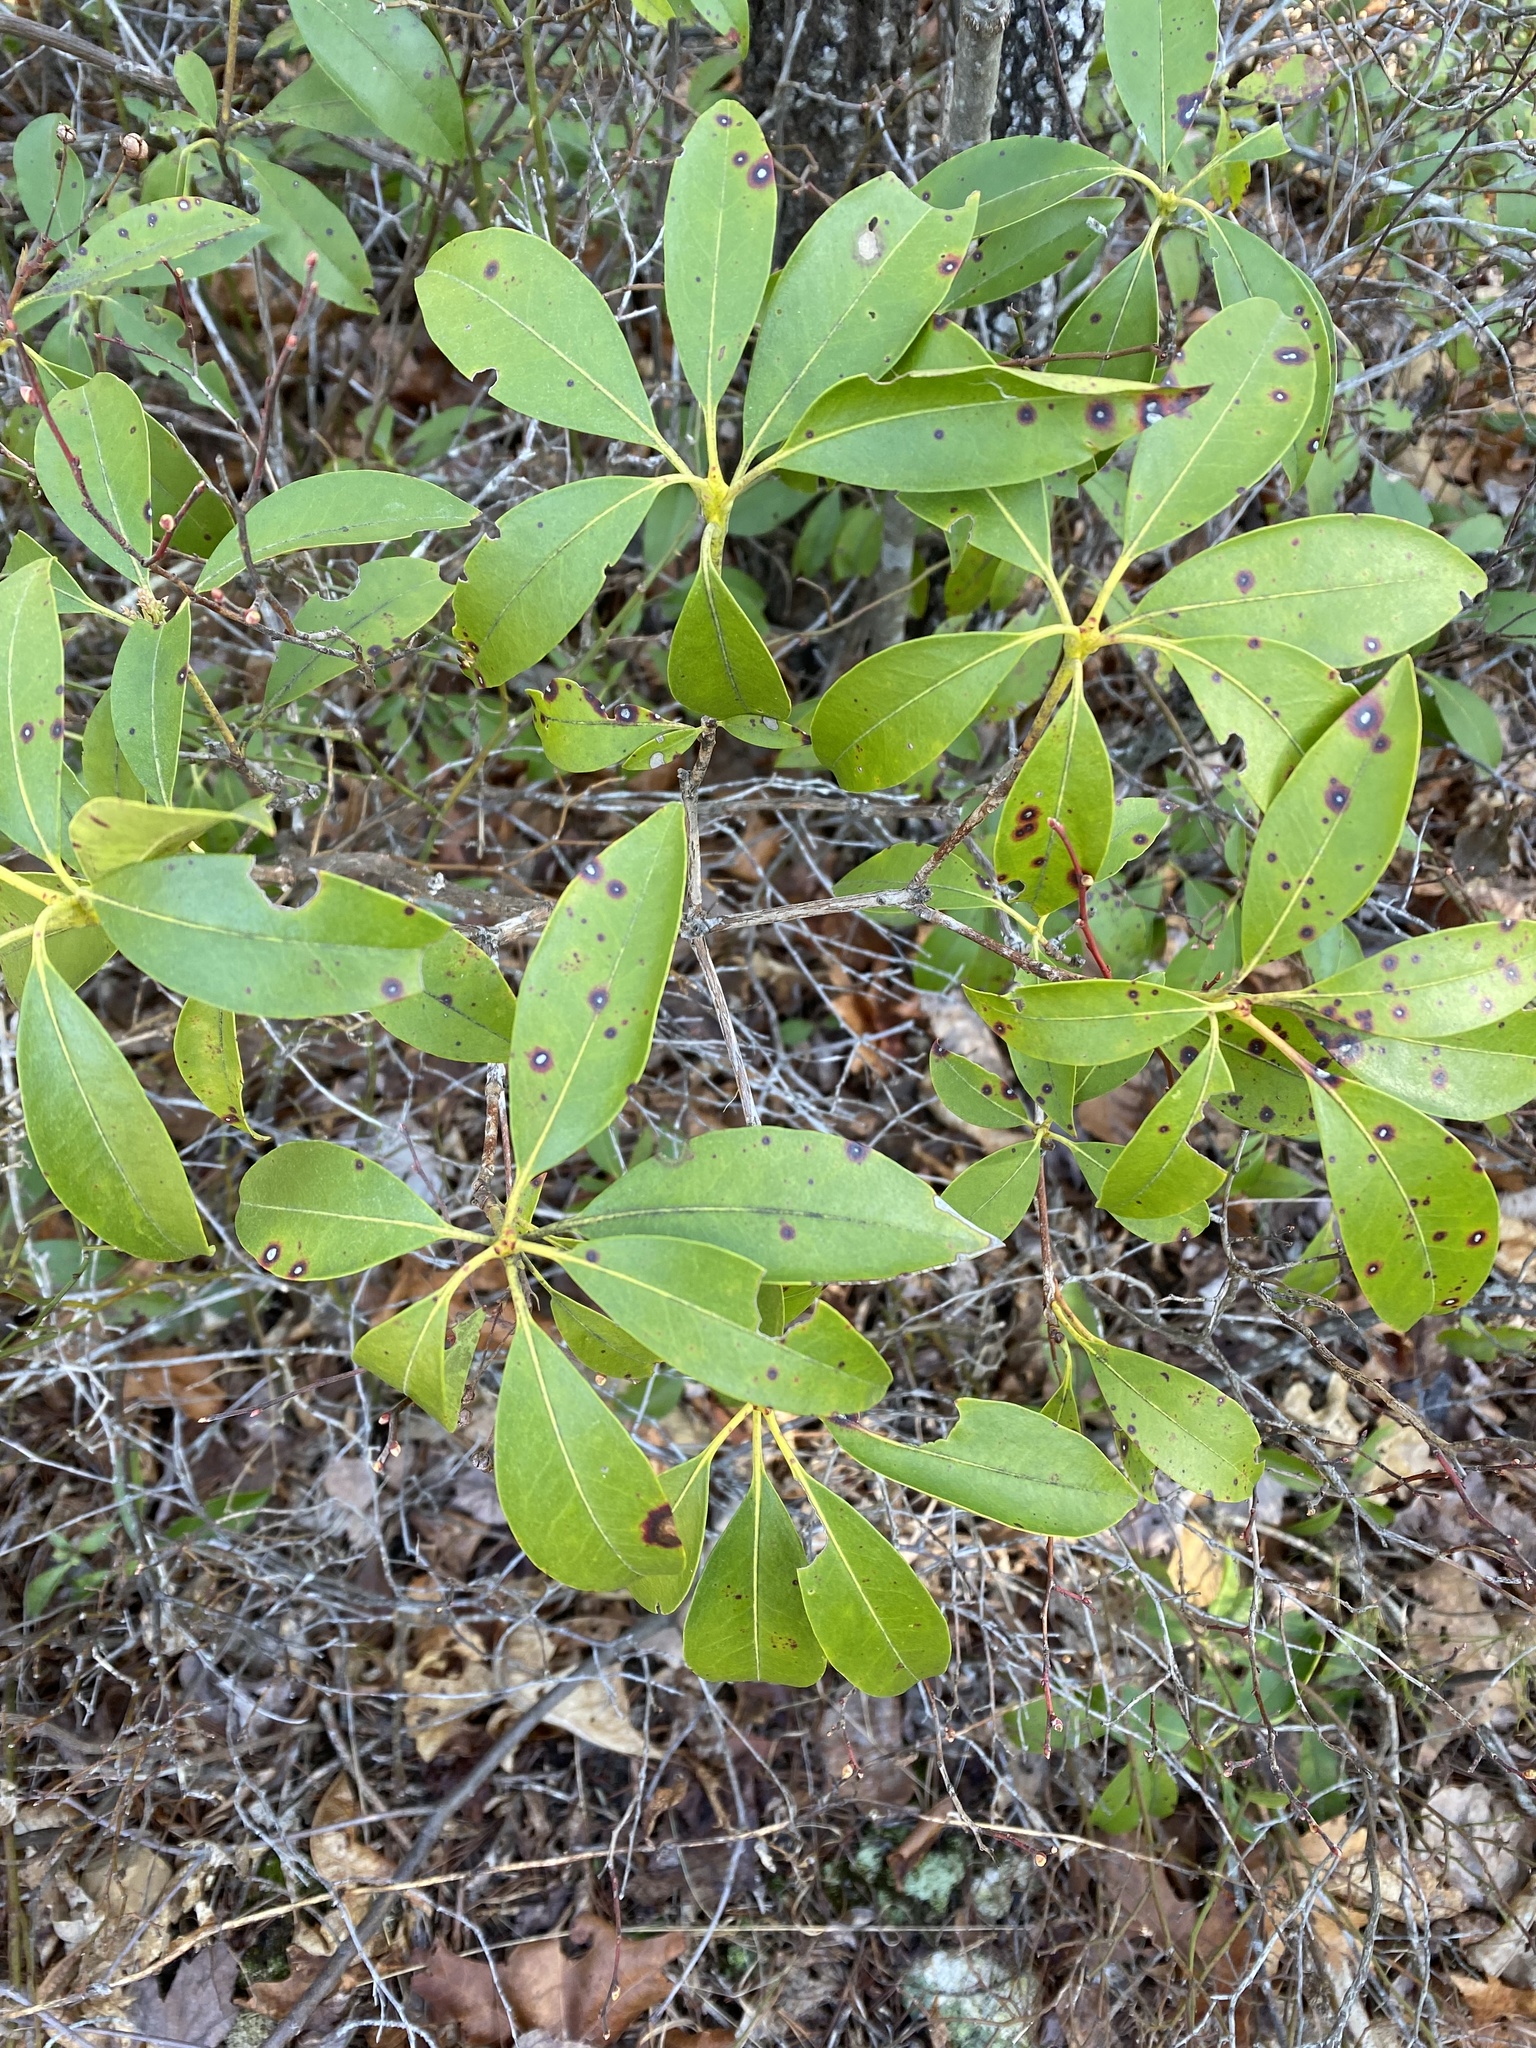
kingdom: Plantae
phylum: Tracheophyta
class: Magnoliopsida
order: Ericales
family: Ericaceae
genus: Kalmia
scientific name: Kalmia latifolia
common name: Mountain-laurel
